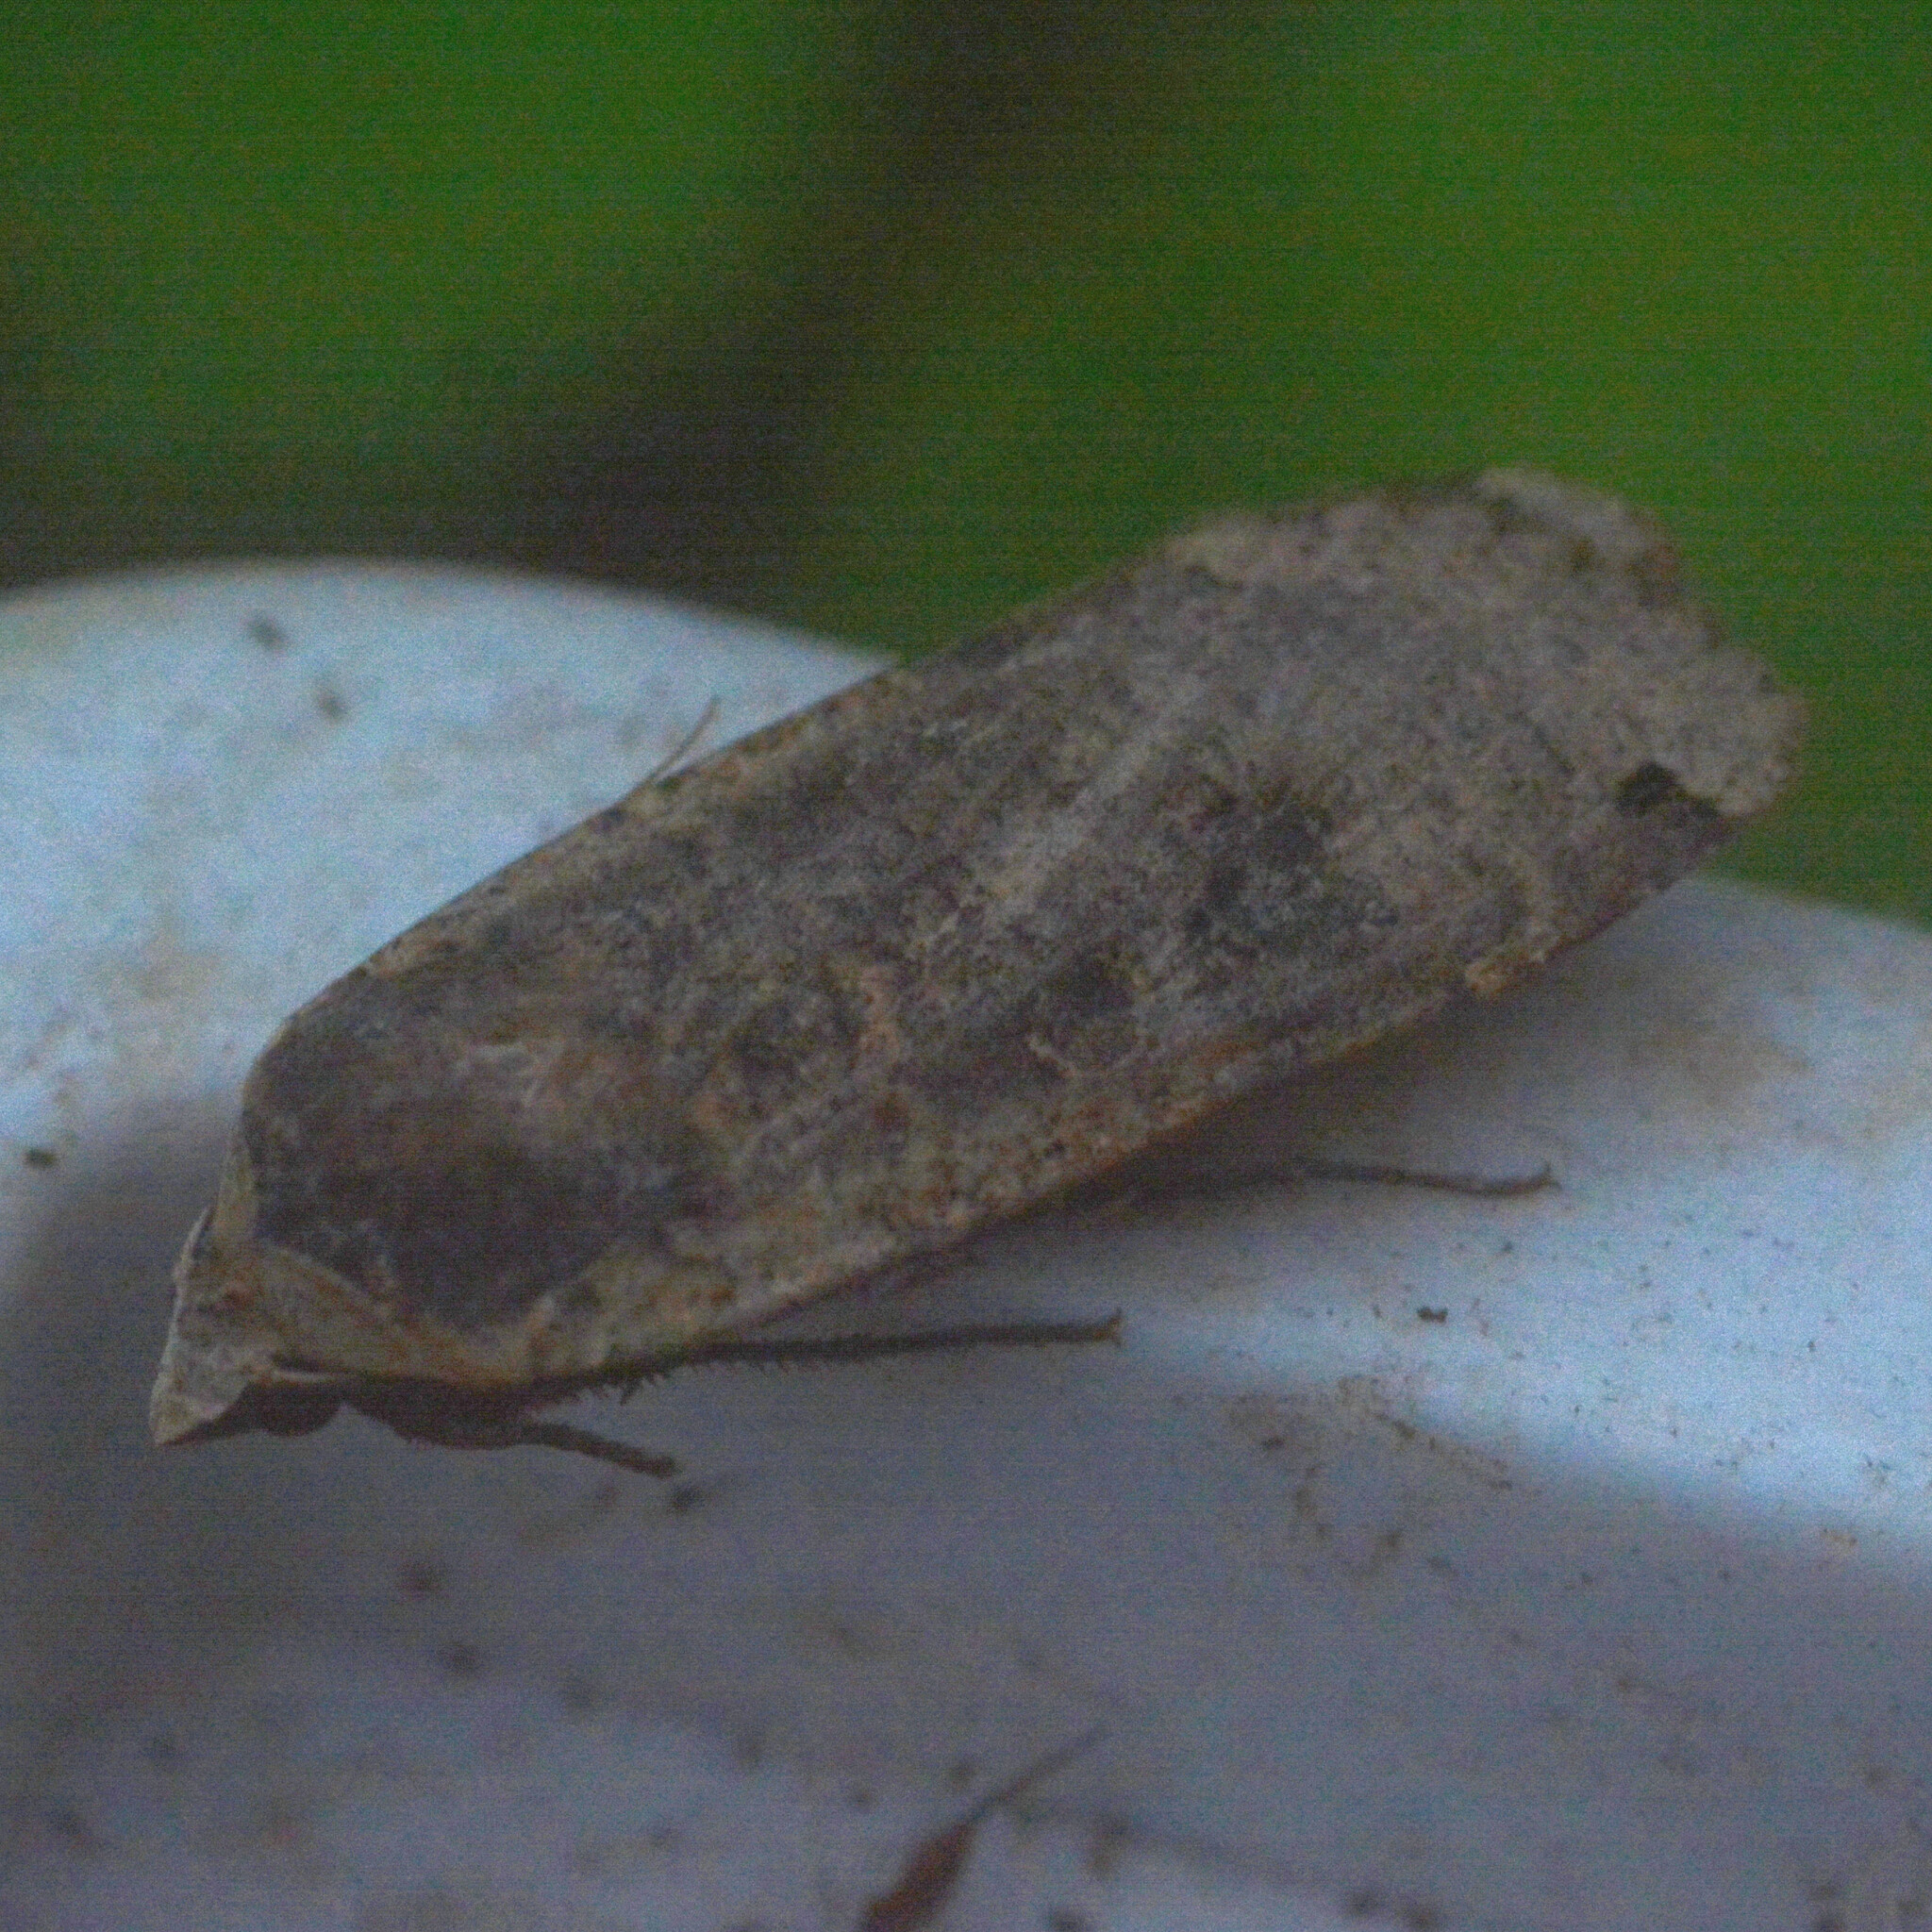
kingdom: Animalia
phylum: Arthropoda
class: Insecta
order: Lepidoptera
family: Noctuidae
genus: Noctua
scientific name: Noctua pronuba
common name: Large yellow underwing
